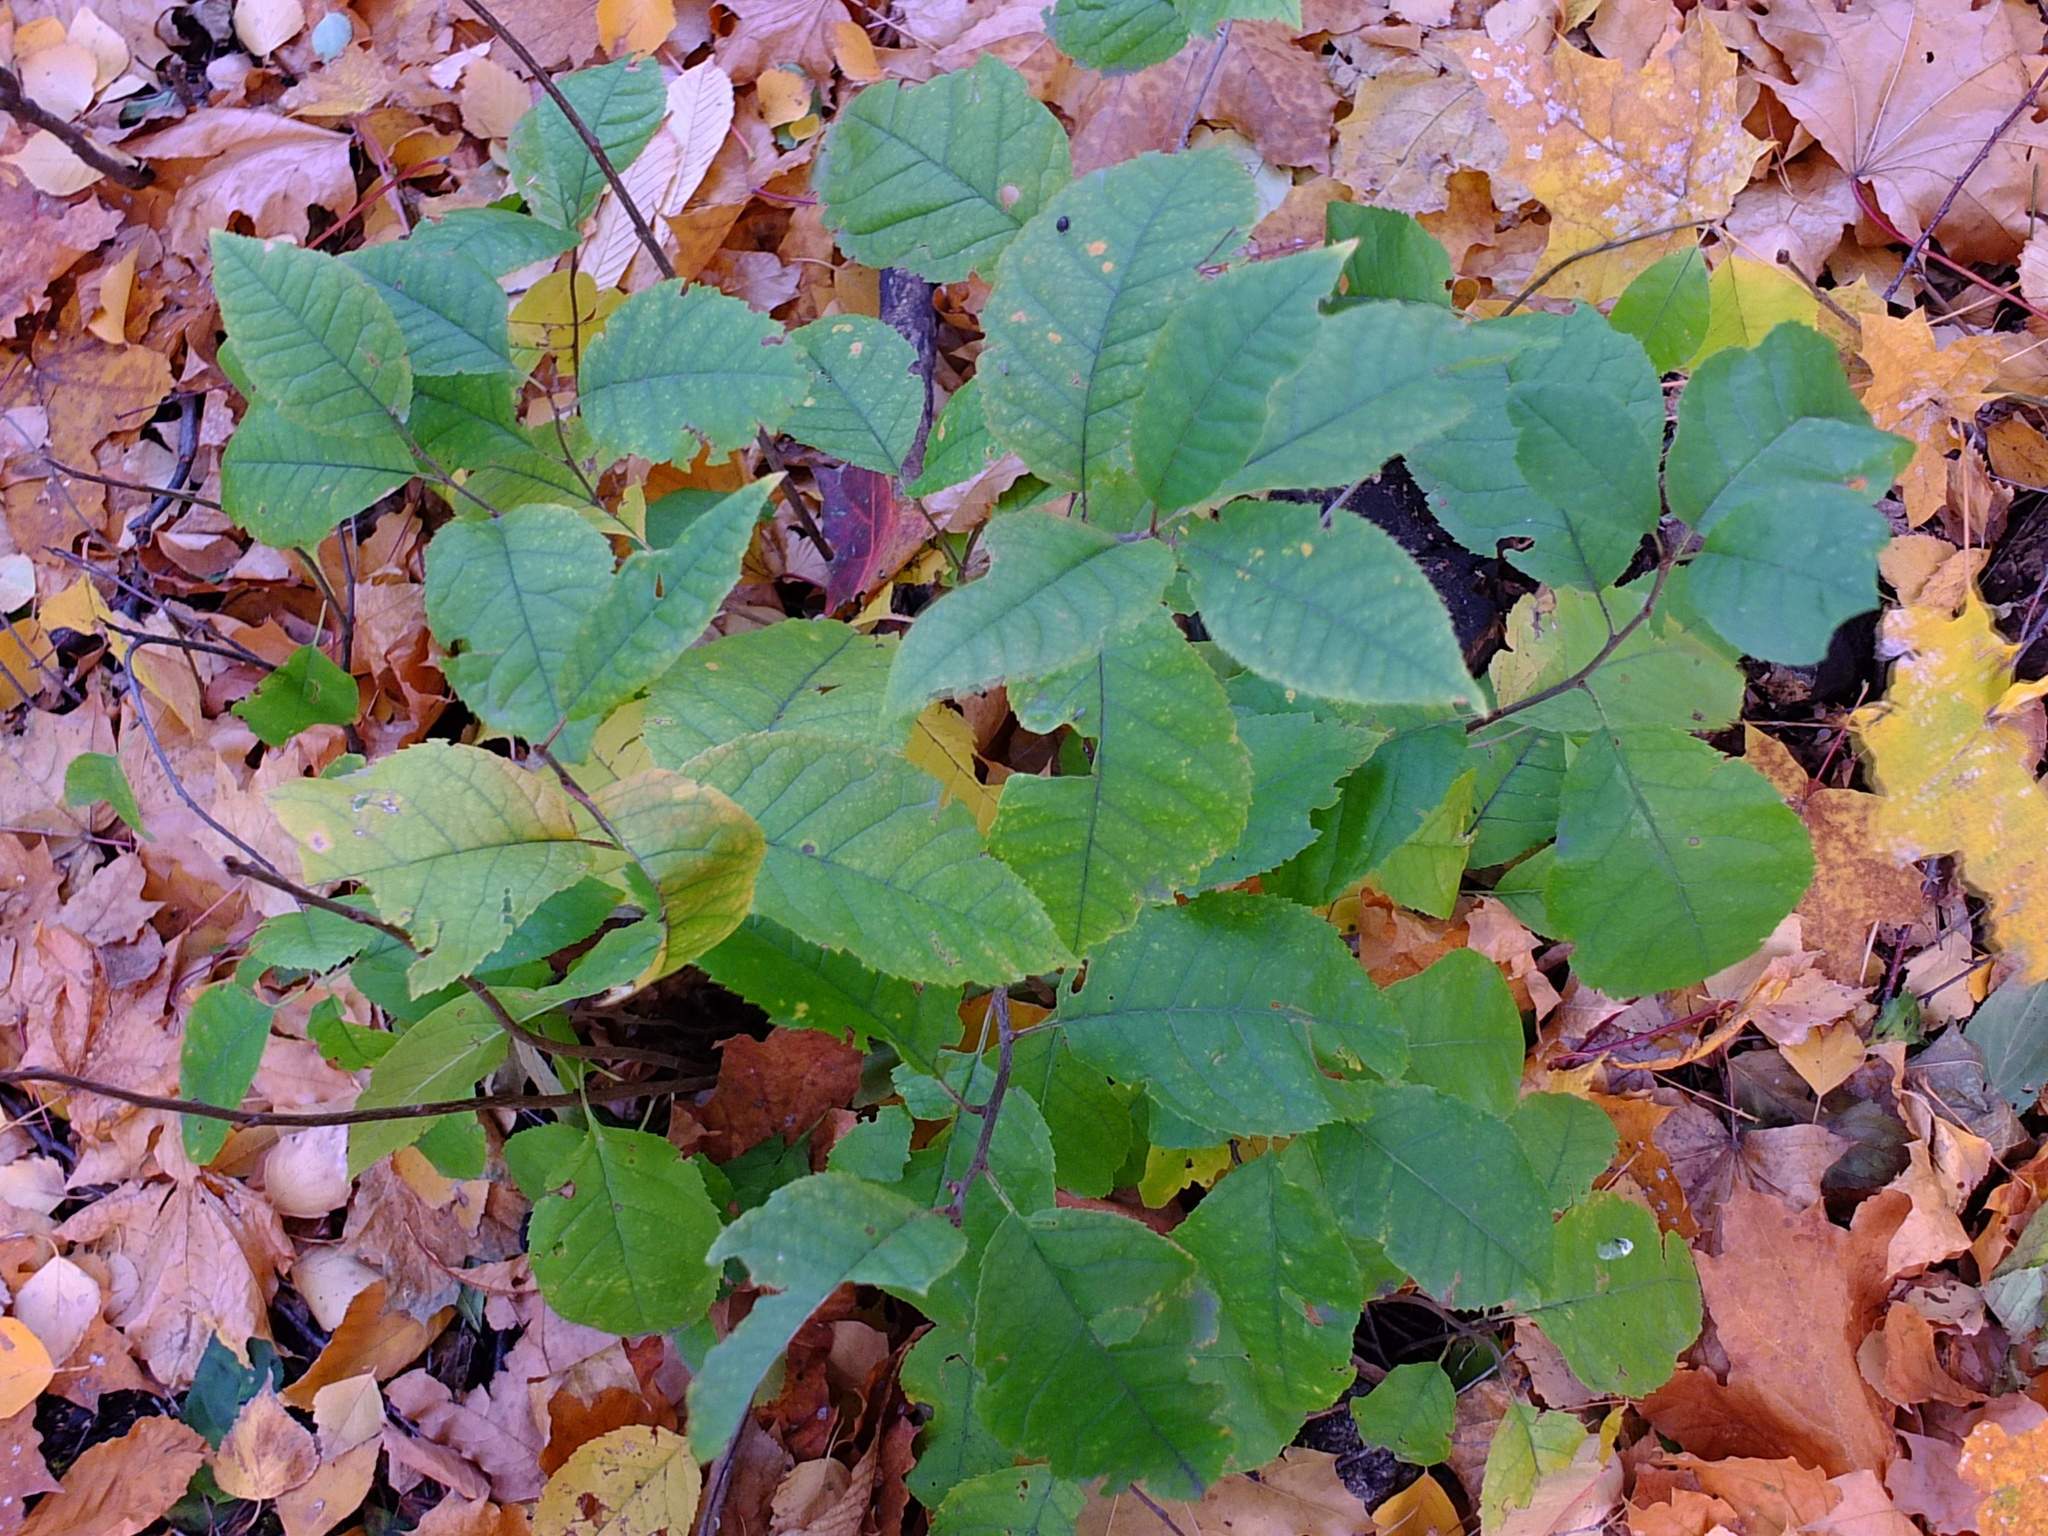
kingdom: Plantae
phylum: Tracheophyta
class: Magnoliopsida
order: Rosales
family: Rosaceae
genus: Prunus
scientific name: Prunus padus
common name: Bird cherry
